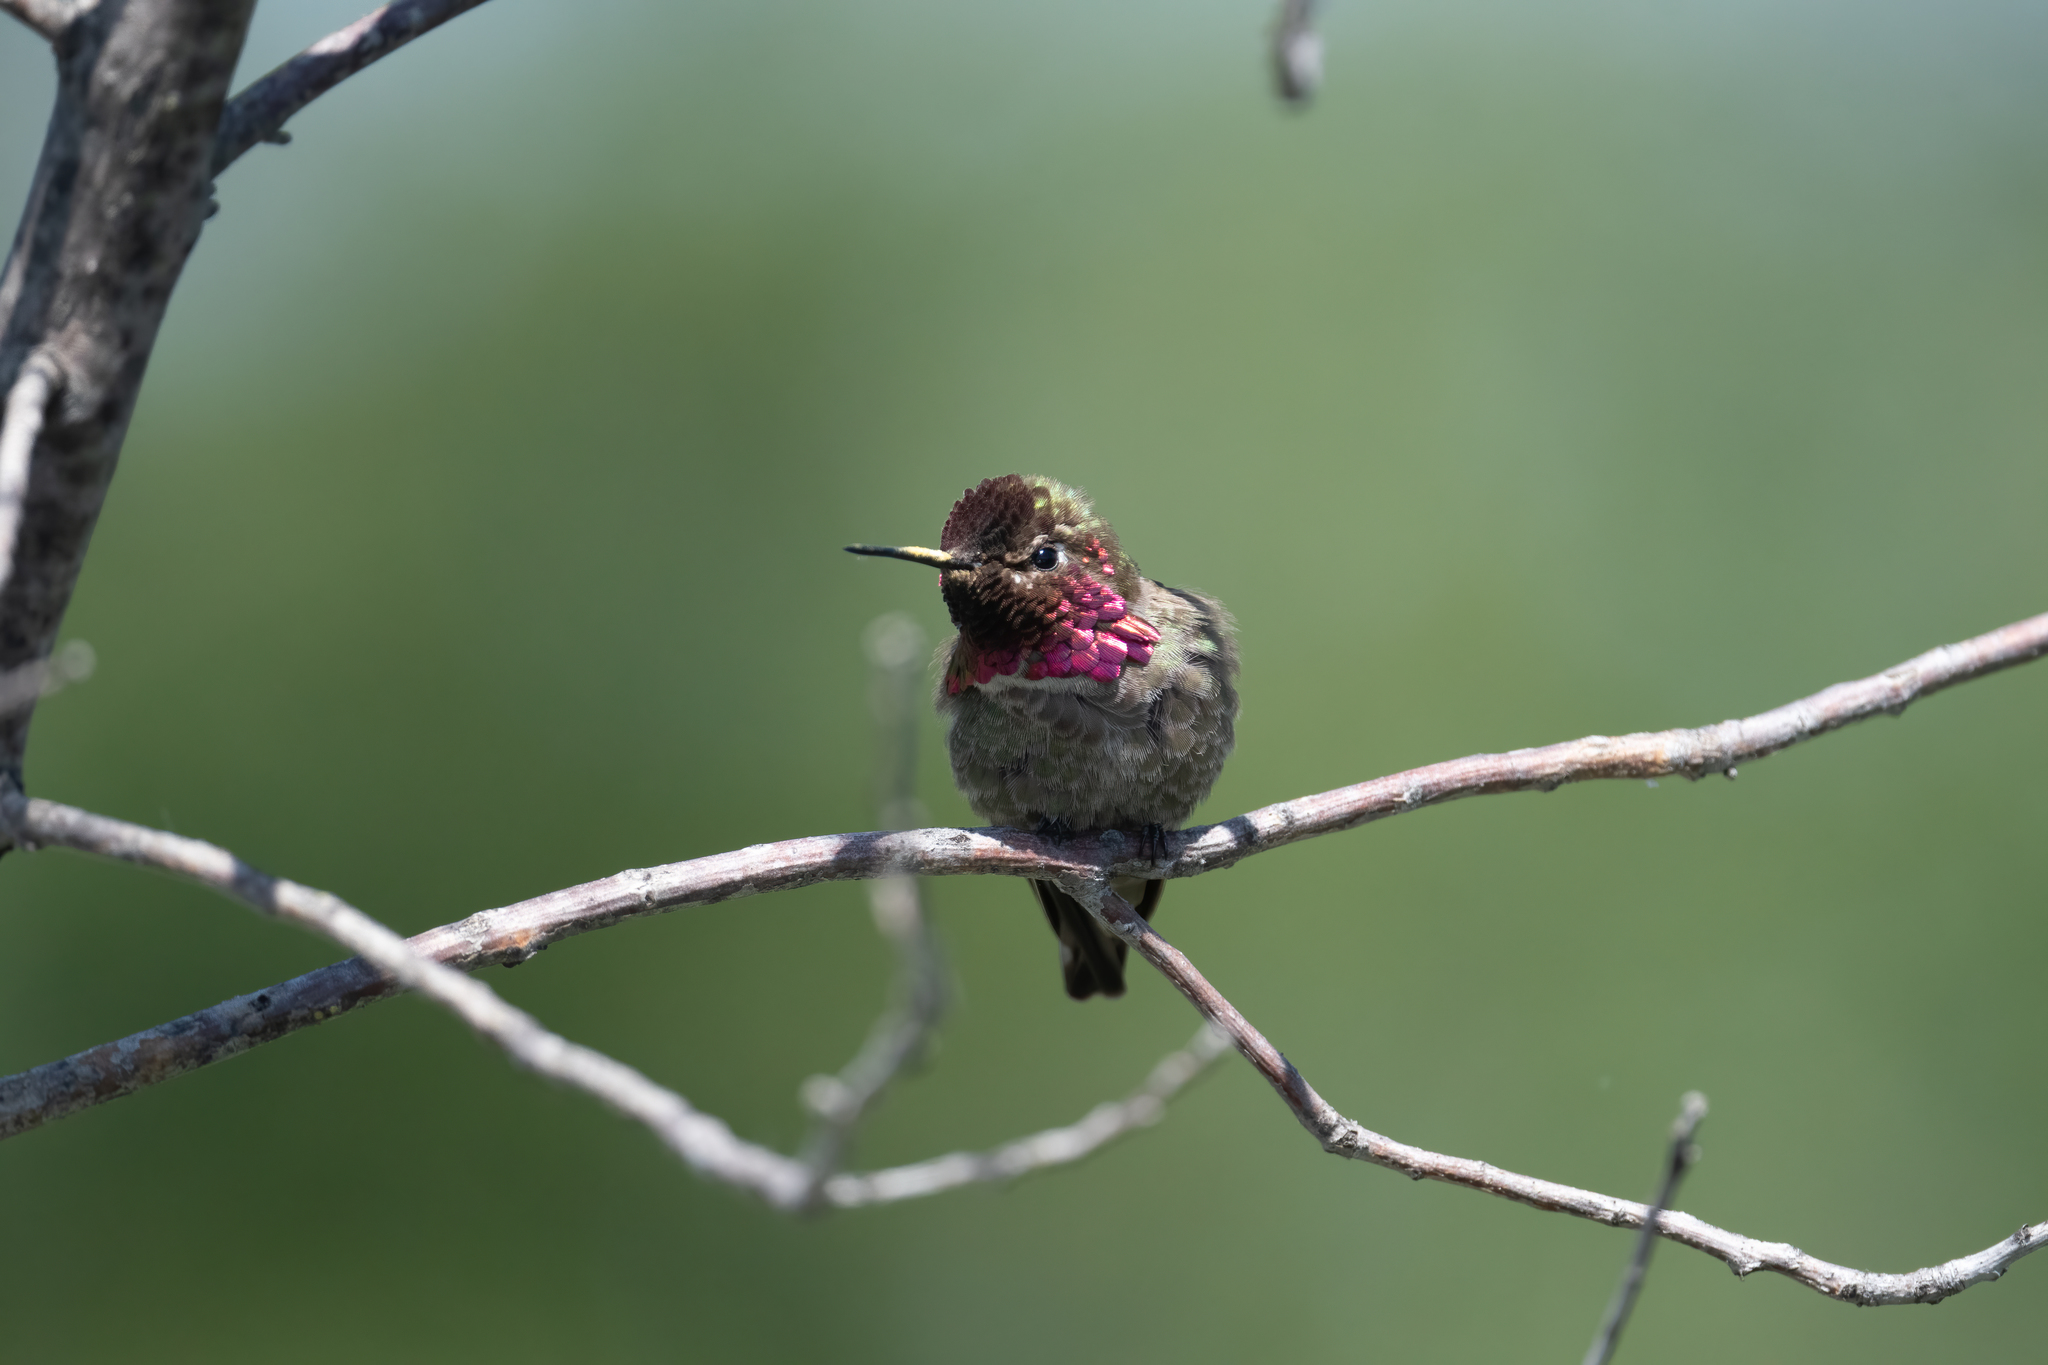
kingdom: Animalia
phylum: Chordata
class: Aves
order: Apodiformes
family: Trochilidae
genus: Calypte
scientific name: Calypte anna
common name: Anna's hummingbird
